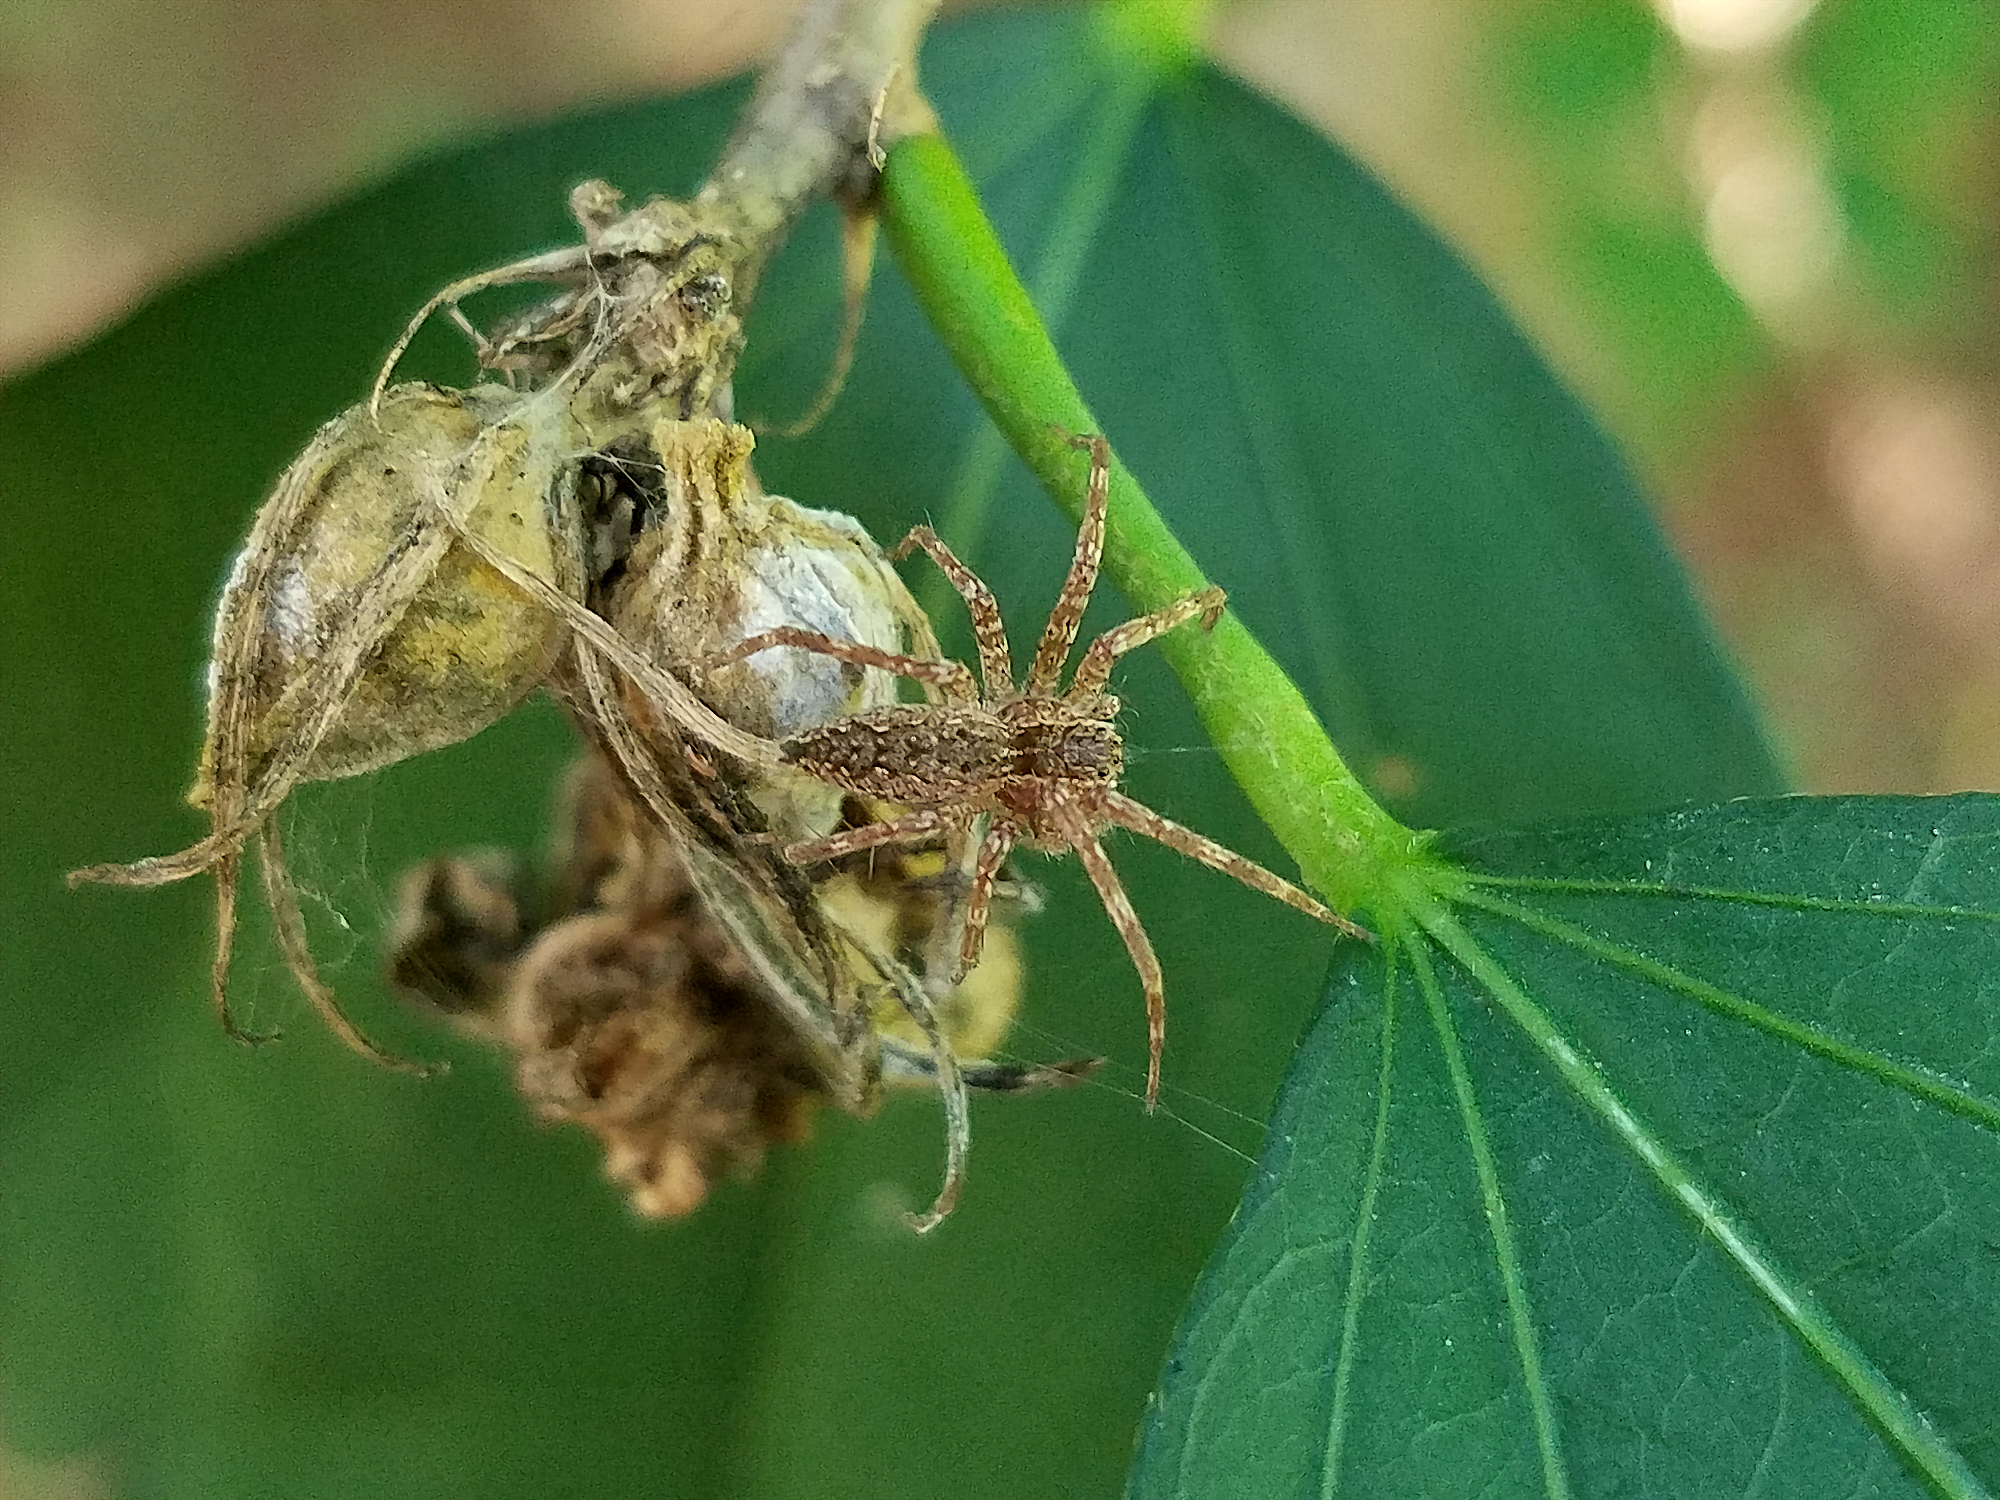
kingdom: Animalia
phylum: Arthropoda
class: Arachnida
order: Araneae
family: Pisauridae
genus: Pisaurina
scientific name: Pisaurina mira
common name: American nursery web spider
